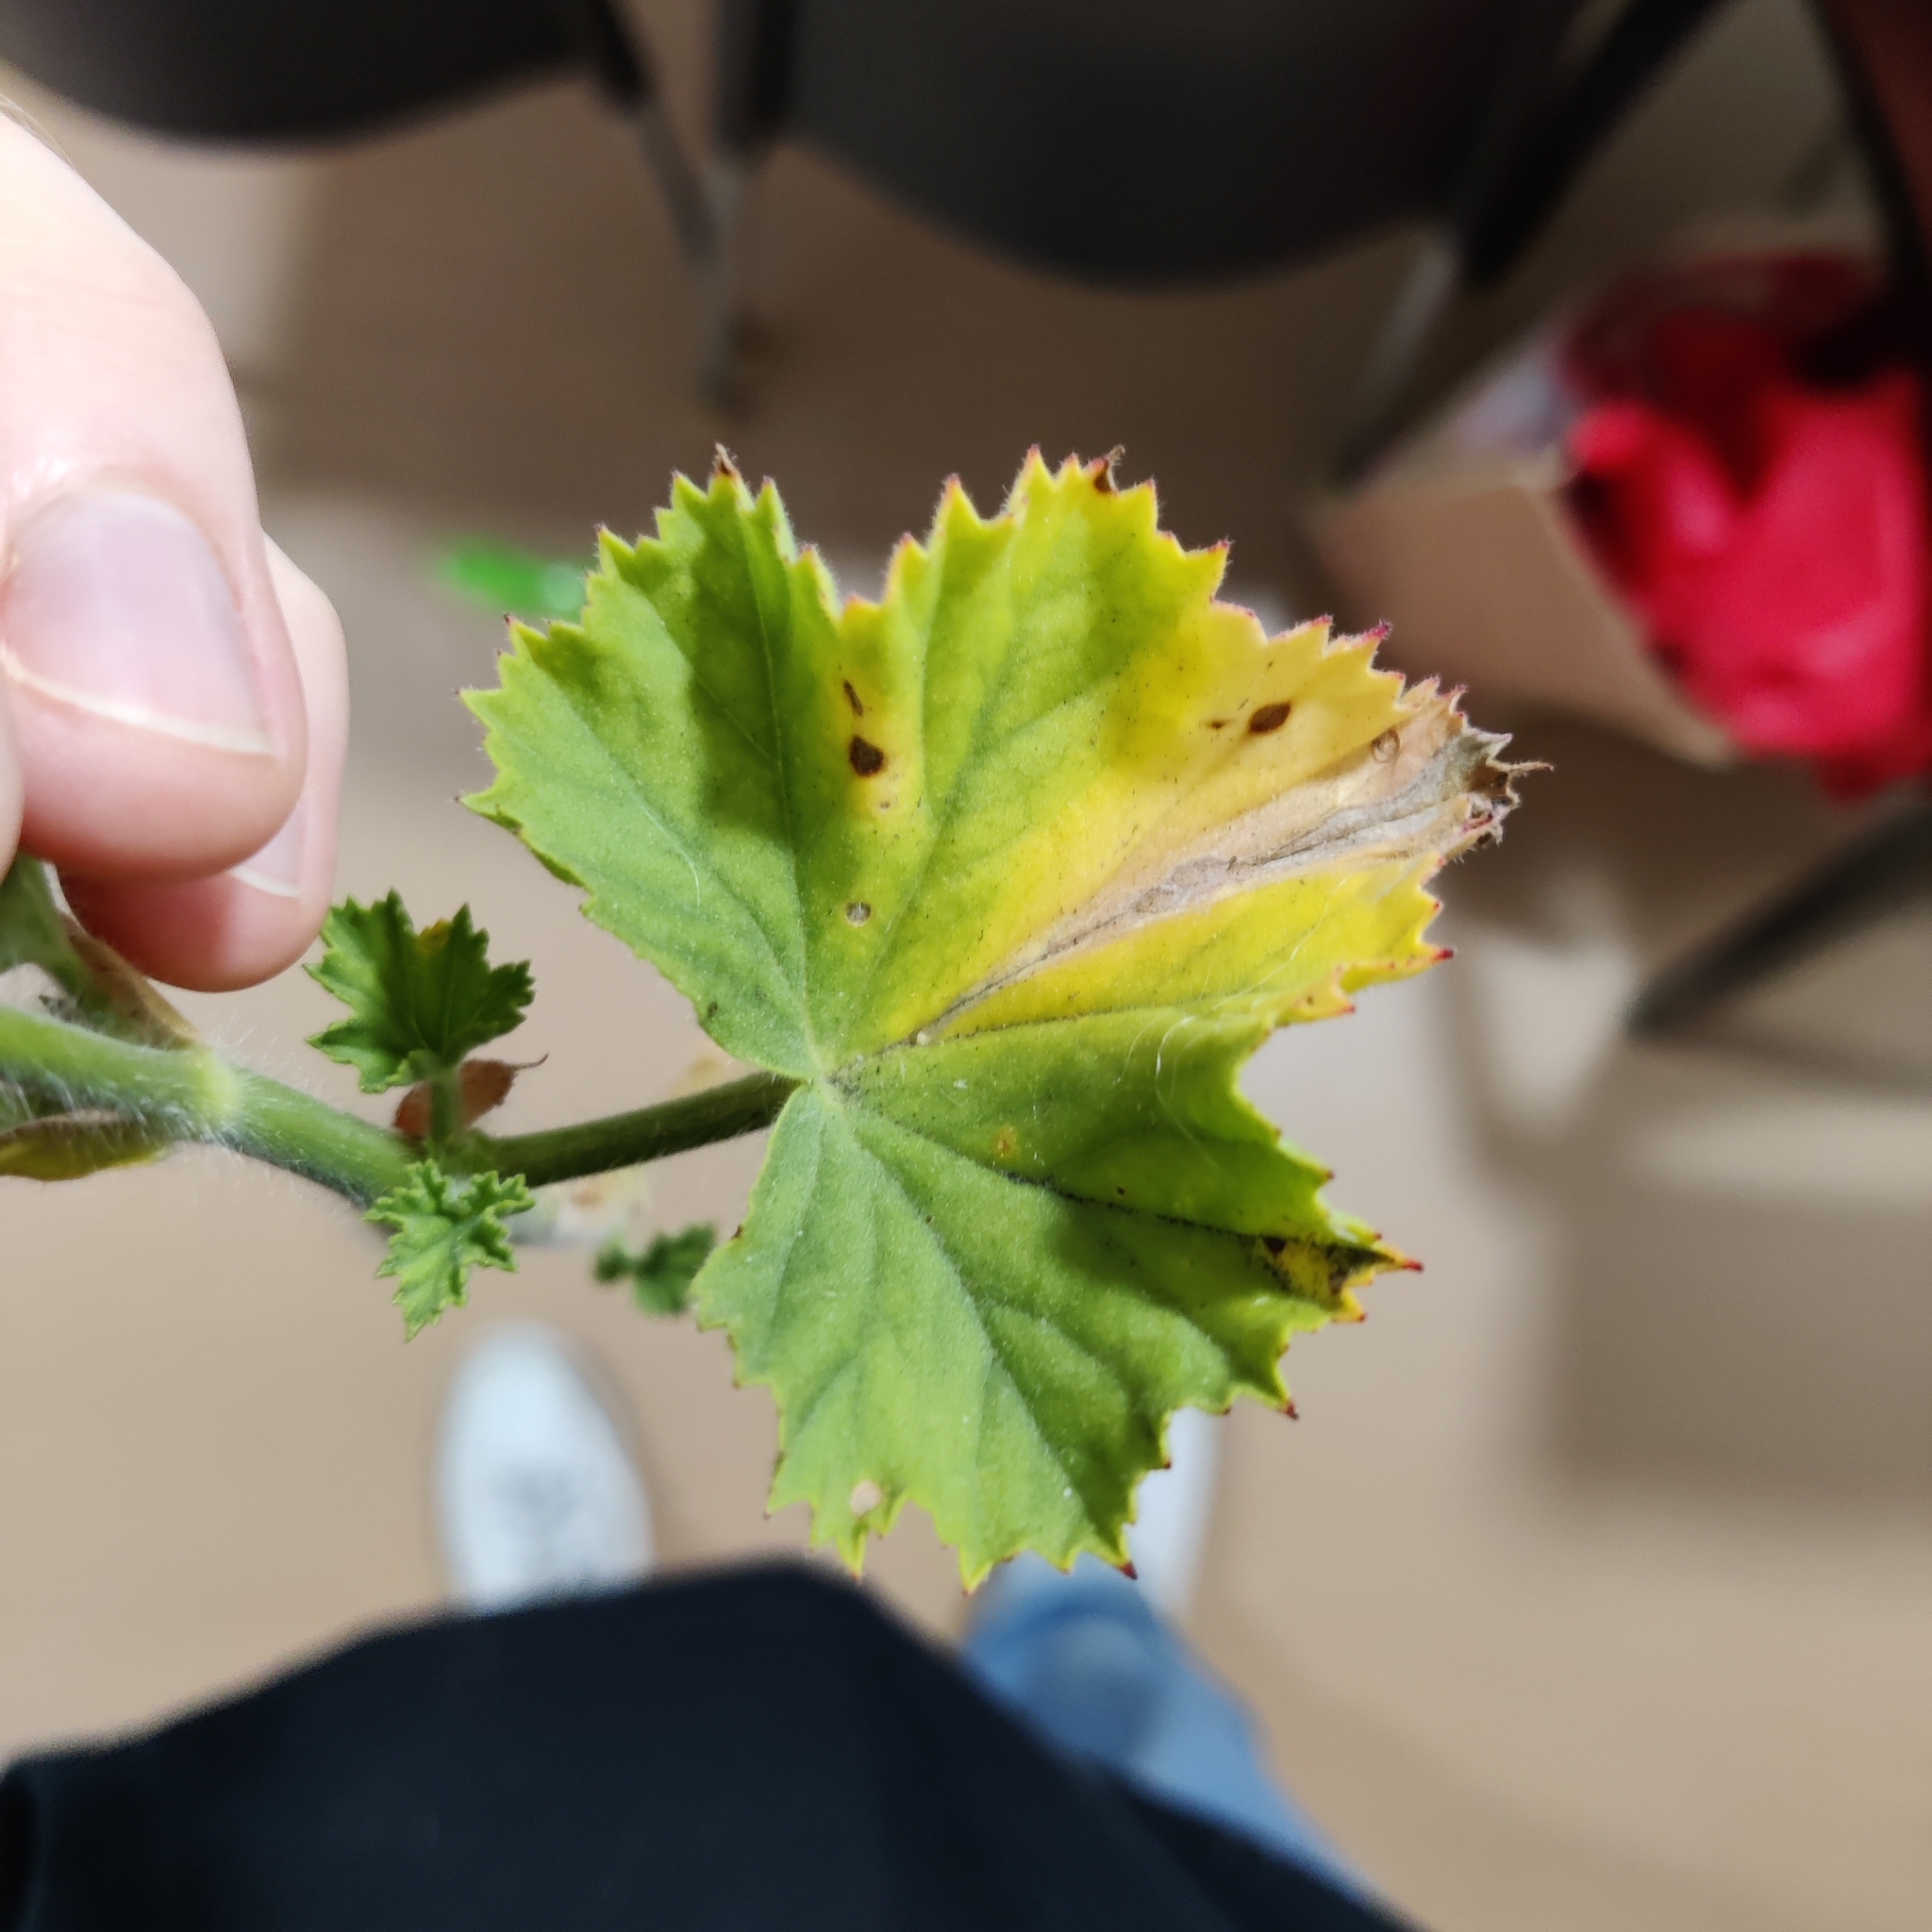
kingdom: Plantae
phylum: Tracheophyta
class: Magnoliopsida
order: Geraniales
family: Geraniaceae
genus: Pelargonium
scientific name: Pelargonium domesticum
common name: Regal pelargonium
